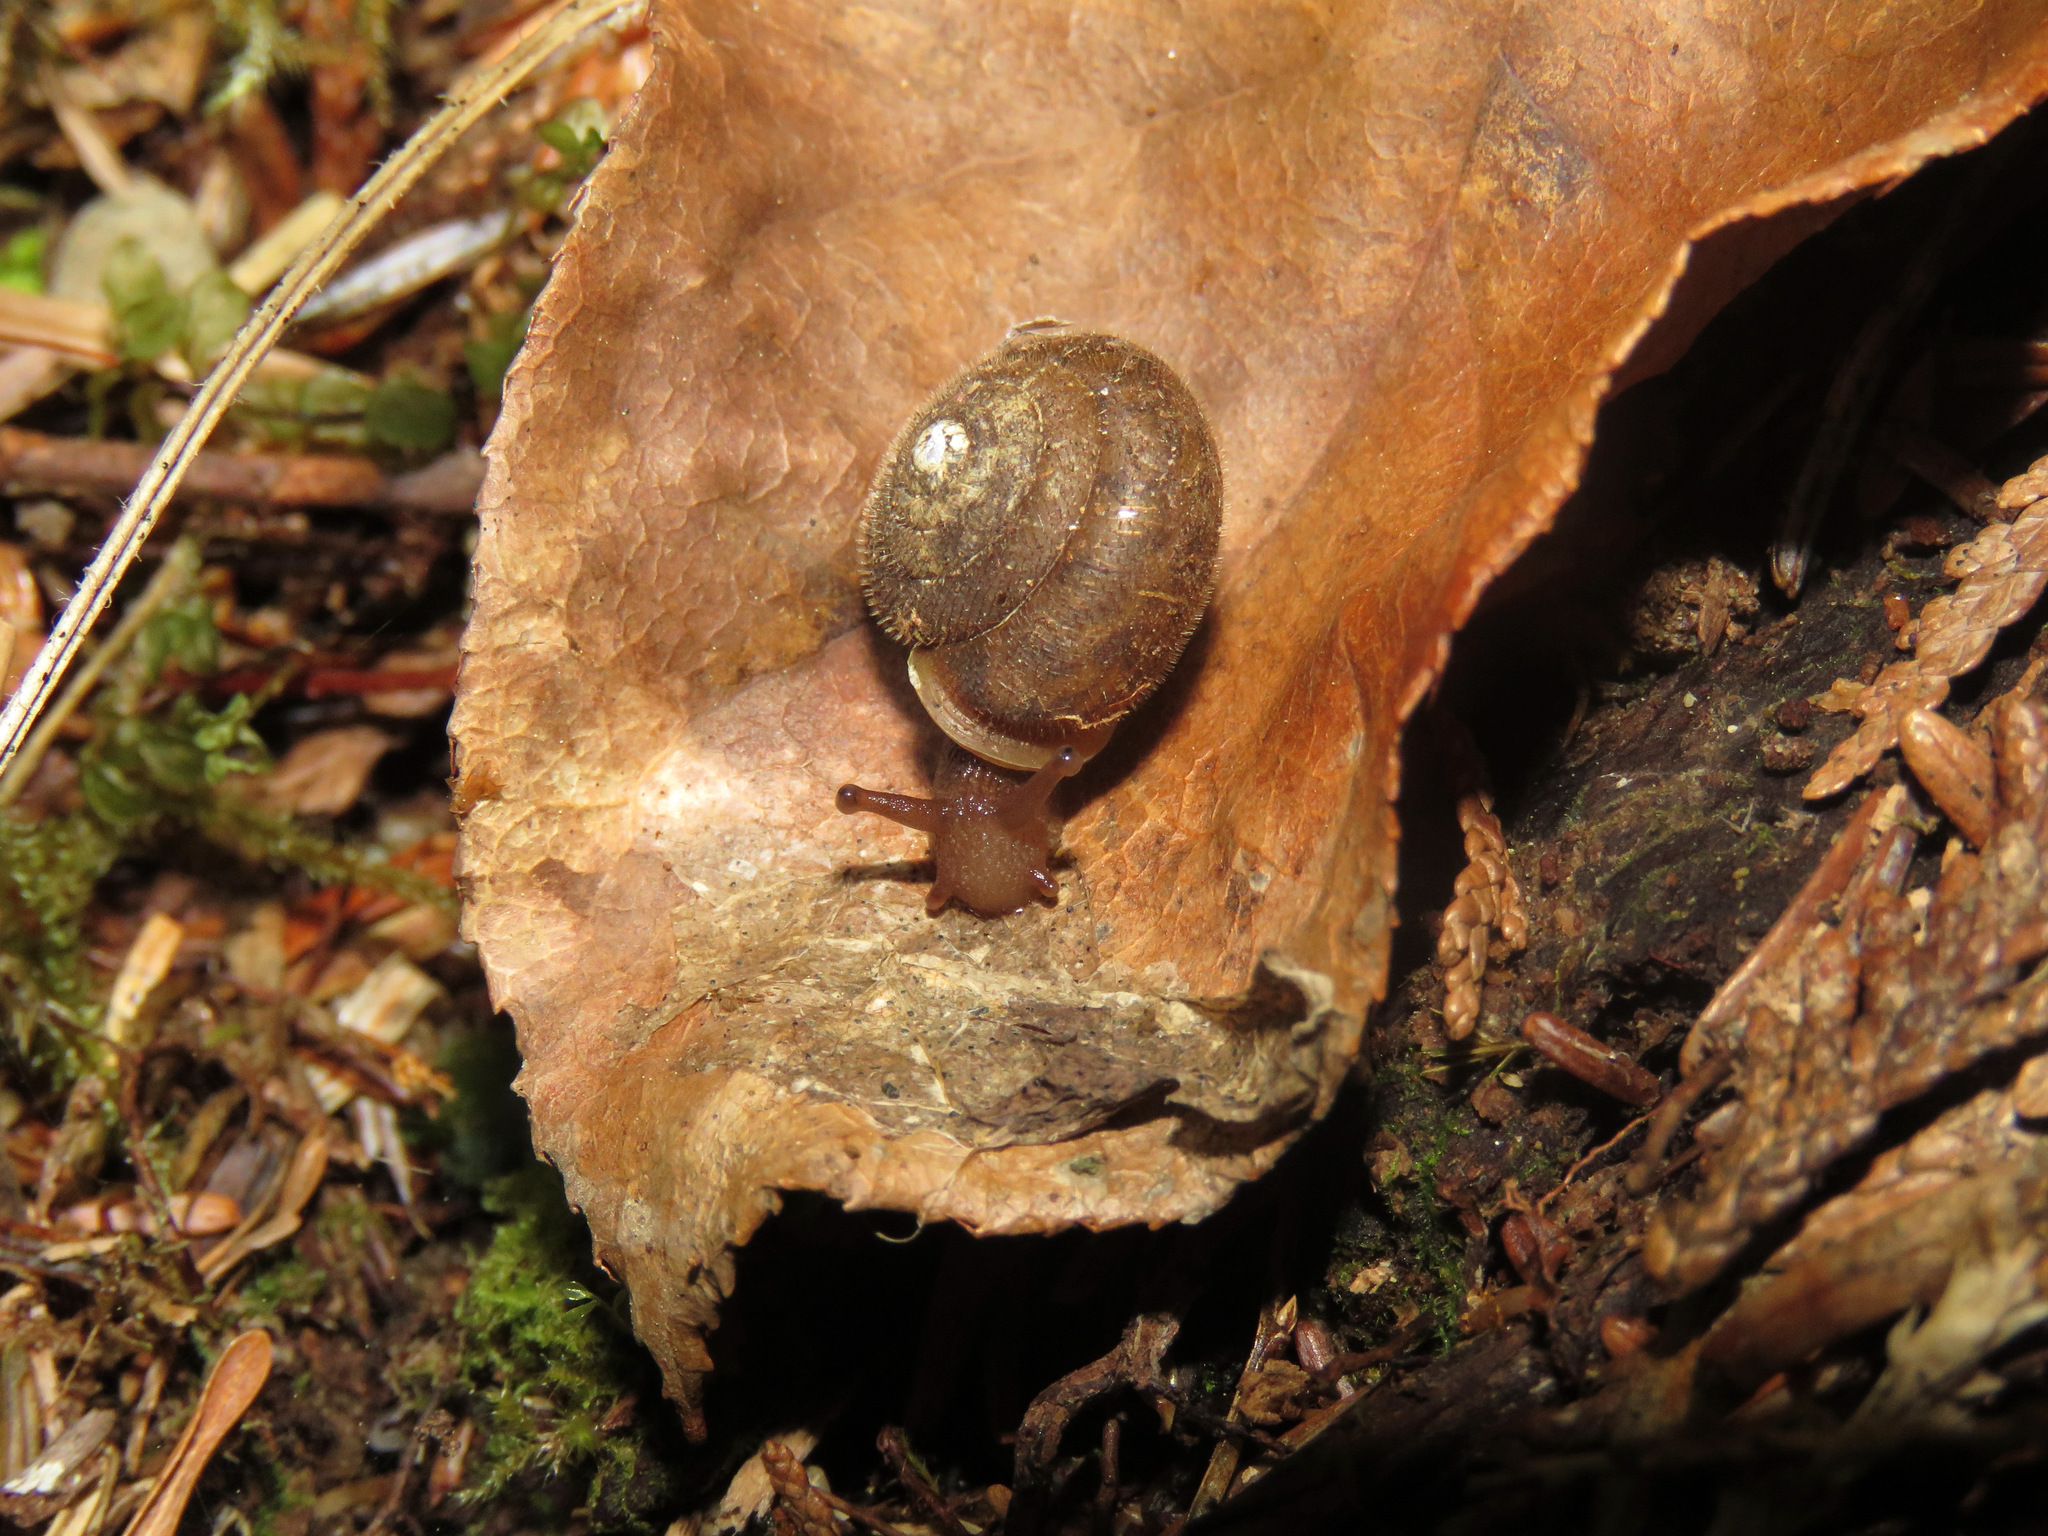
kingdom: Animalia
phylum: Mollusca
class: Gastropoda
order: Stylommatophora
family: Polygyridae
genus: Vespericola
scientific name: Vespericola columbianus
